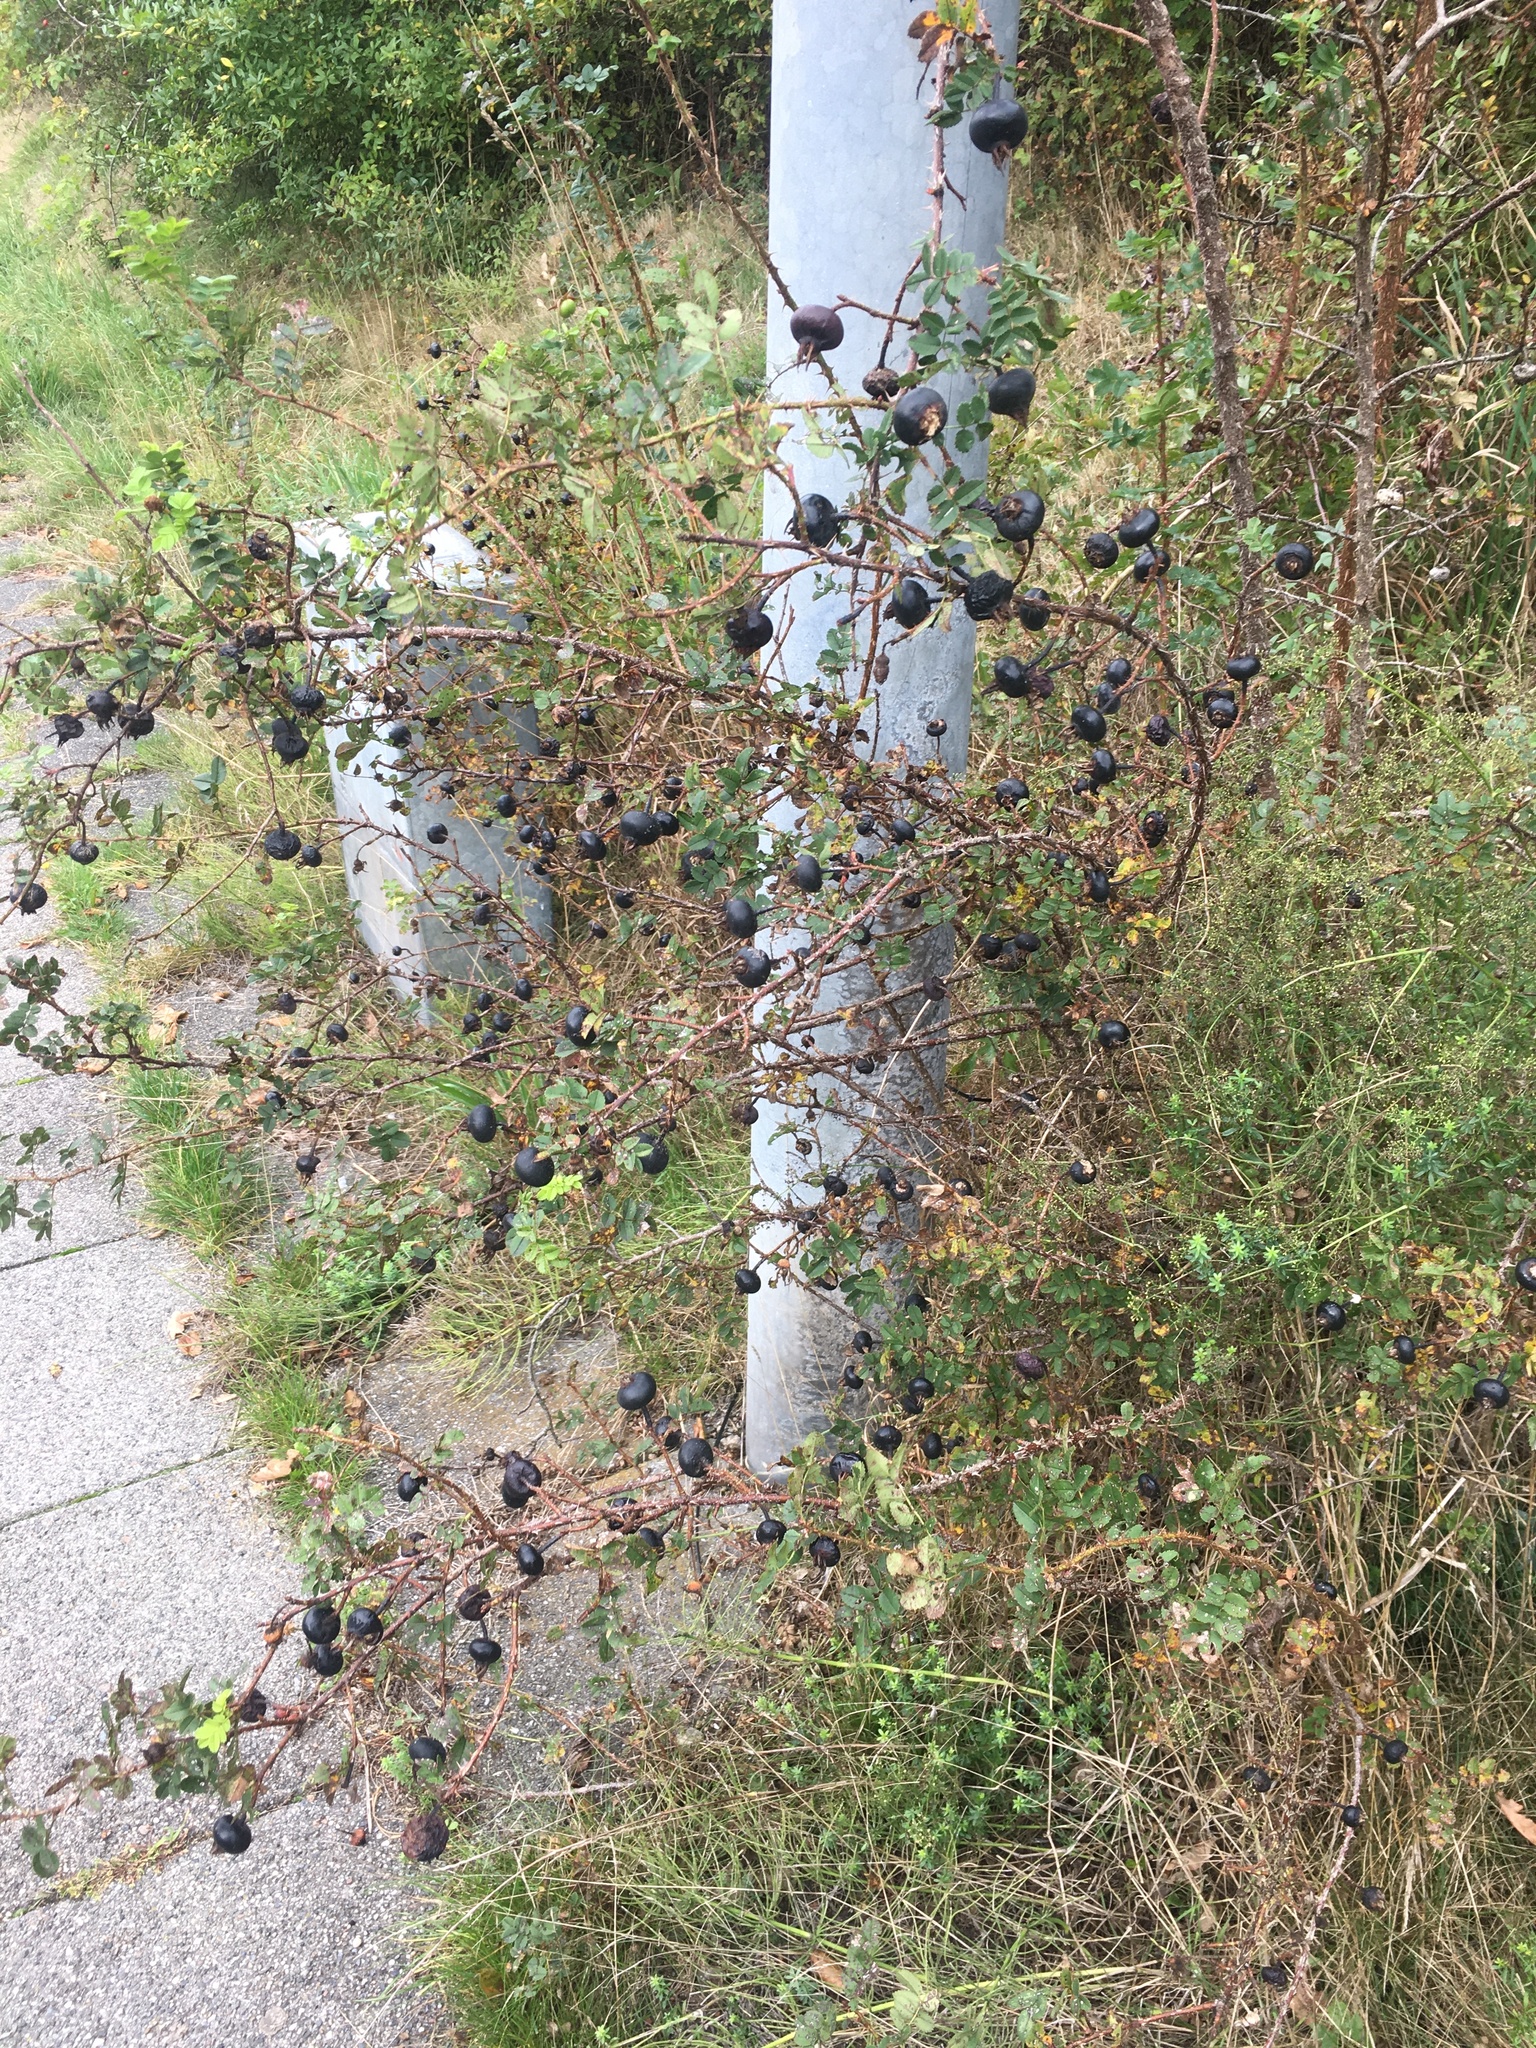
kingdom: Plantae
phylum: Tracheophyta
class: Magnoliopsida
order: Rosales
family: Rosaceae
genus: Rosa
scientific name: Rosa spinosissima
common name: Burnet rose
